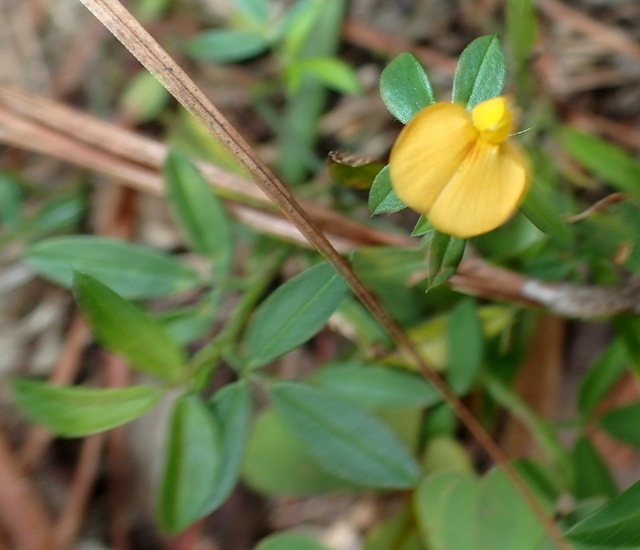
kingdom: Plantae
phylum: Tracheophyta
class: Magnoliopsida
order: Fabales
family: Fabaceae
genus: Stylosanthes
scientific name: Stylosanthes biflora
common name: Two-flower pencil-flower
